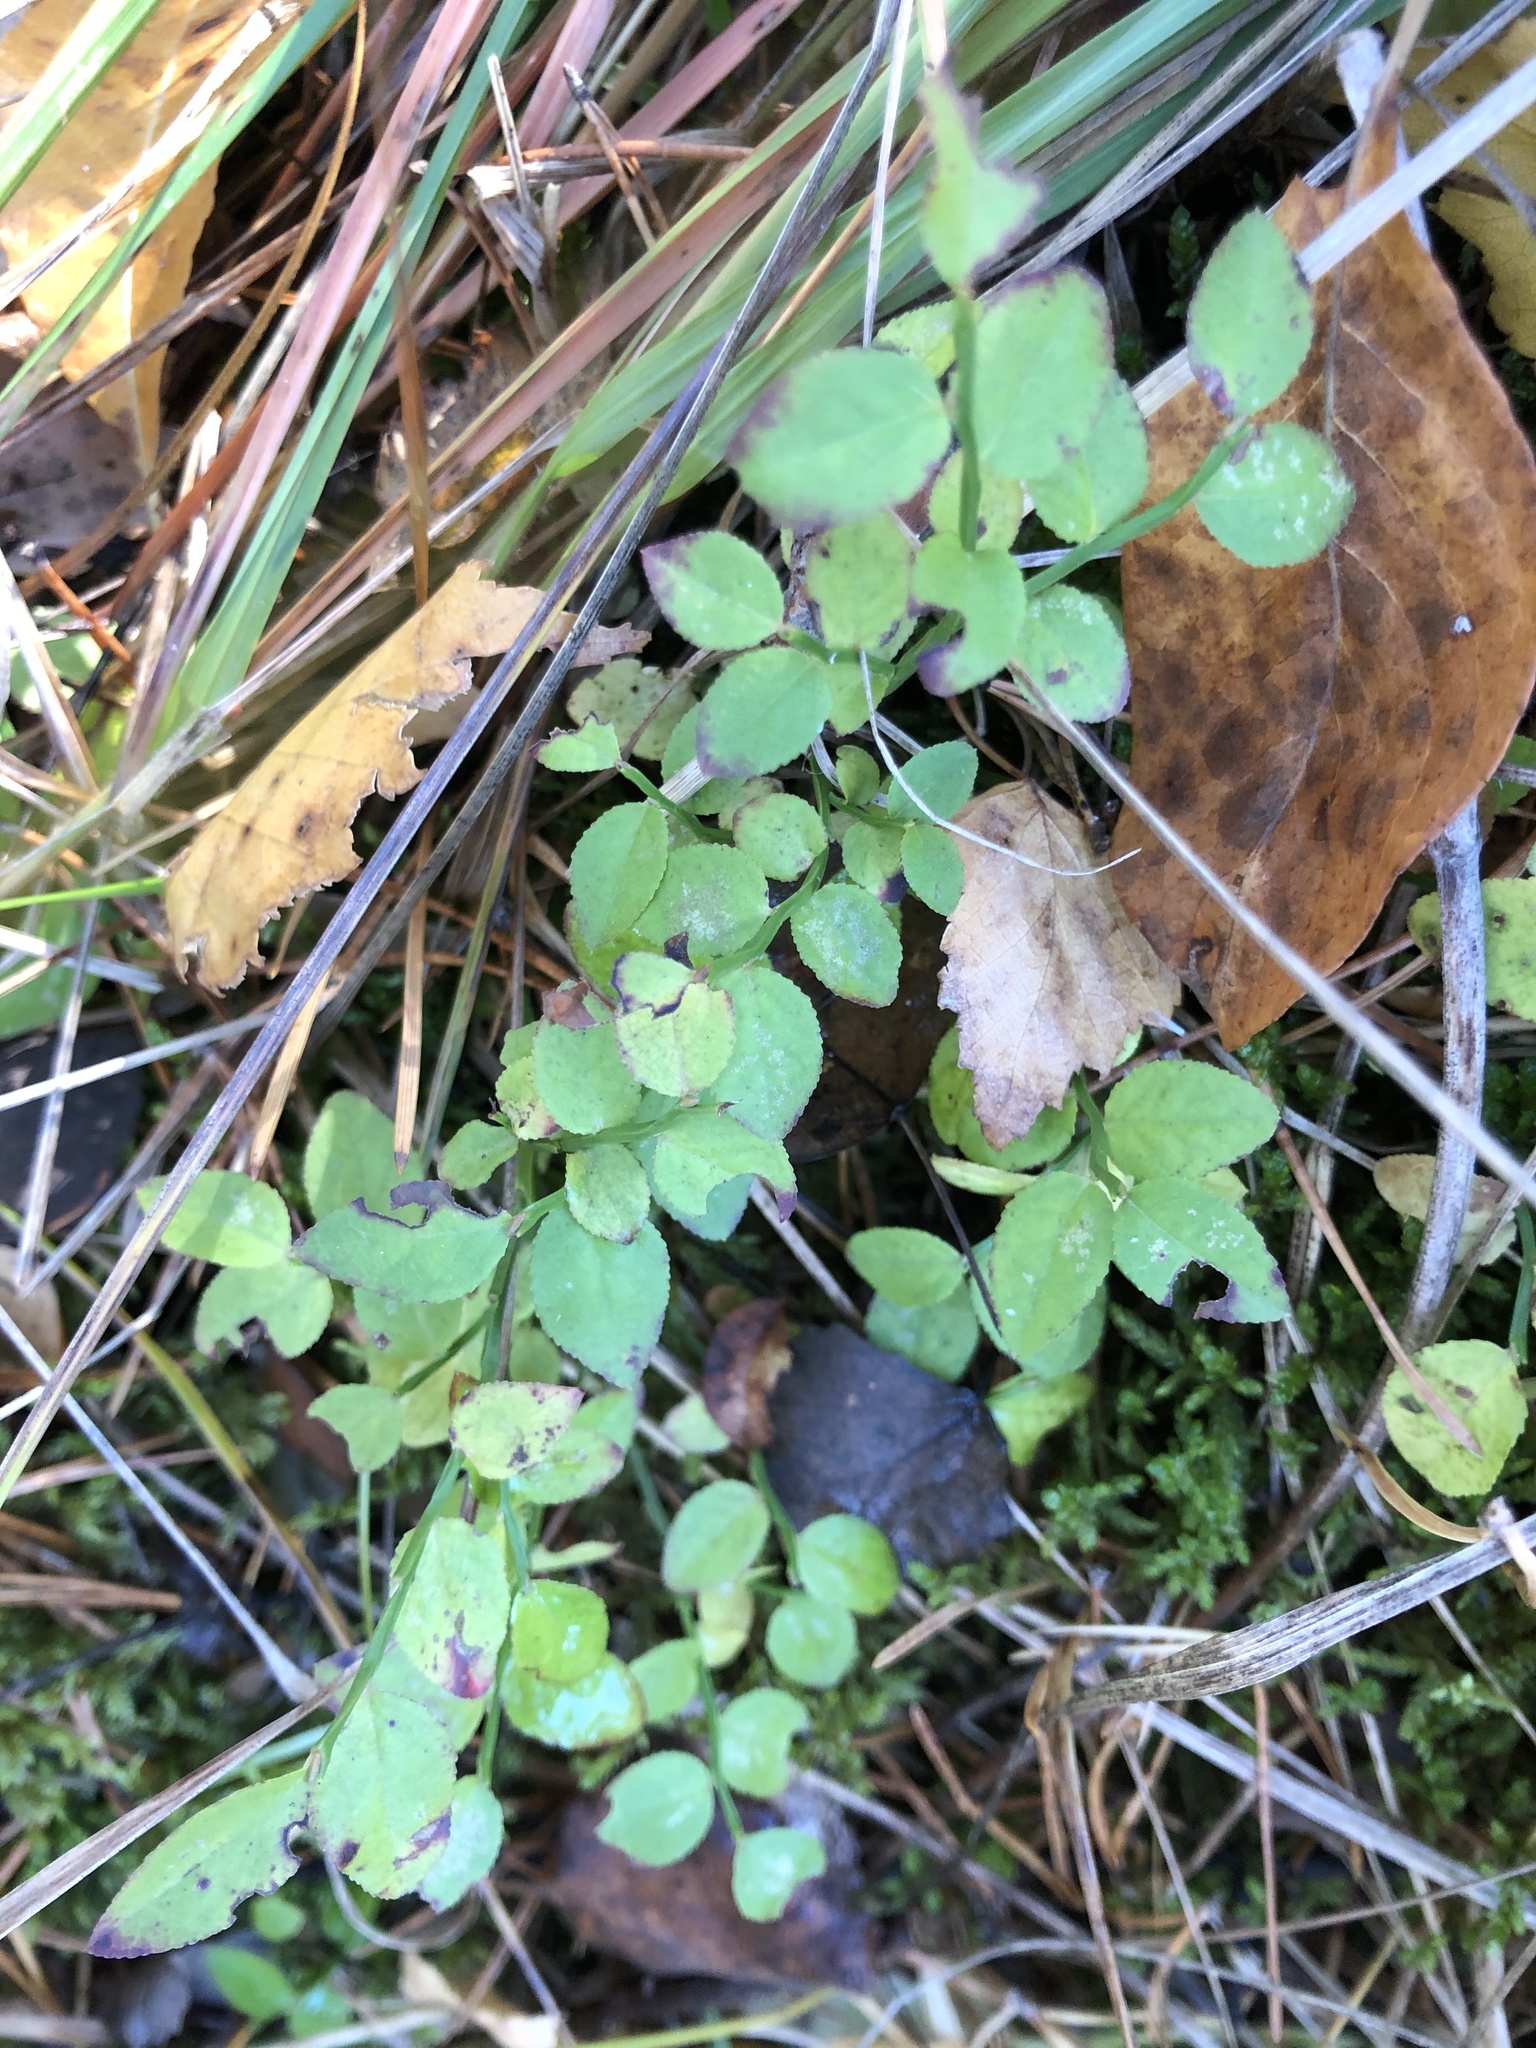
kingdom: Plantae
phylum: Tracheophyta
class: Magnoliopsida
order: Ericales
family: Ericaceae
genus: Vaccinium
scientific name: Vaccinium myrtillus
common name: Bilberry
